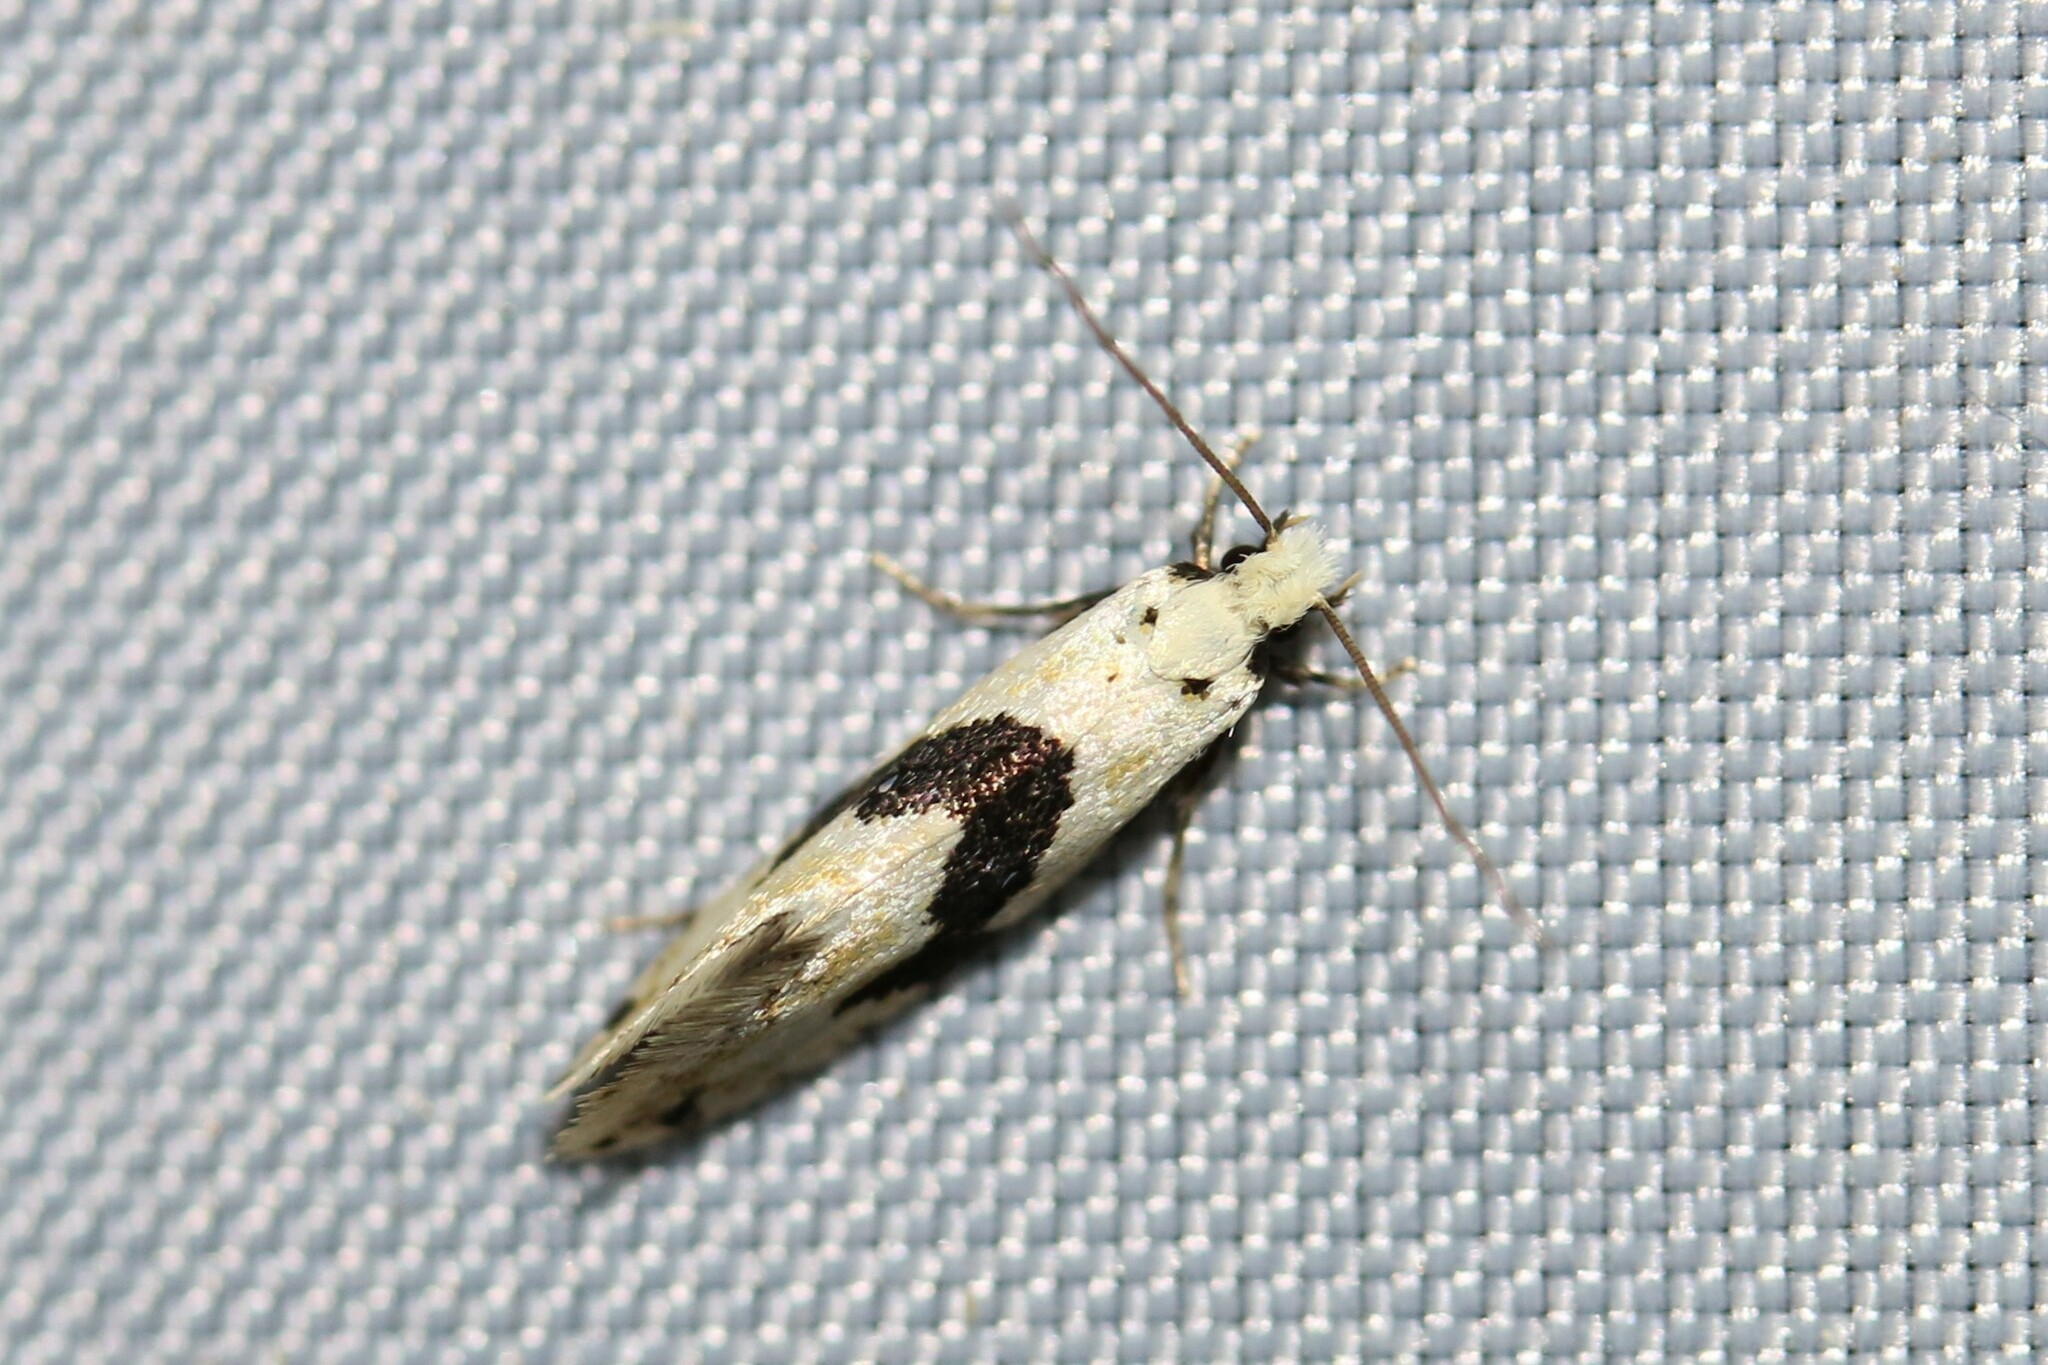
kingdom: Animalia
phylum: Arthropoda
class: Insecta
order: Lepidoptera
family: Tineidae
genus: Nemapogon
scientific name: Nemapogon clematella
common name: Barred white clothes
